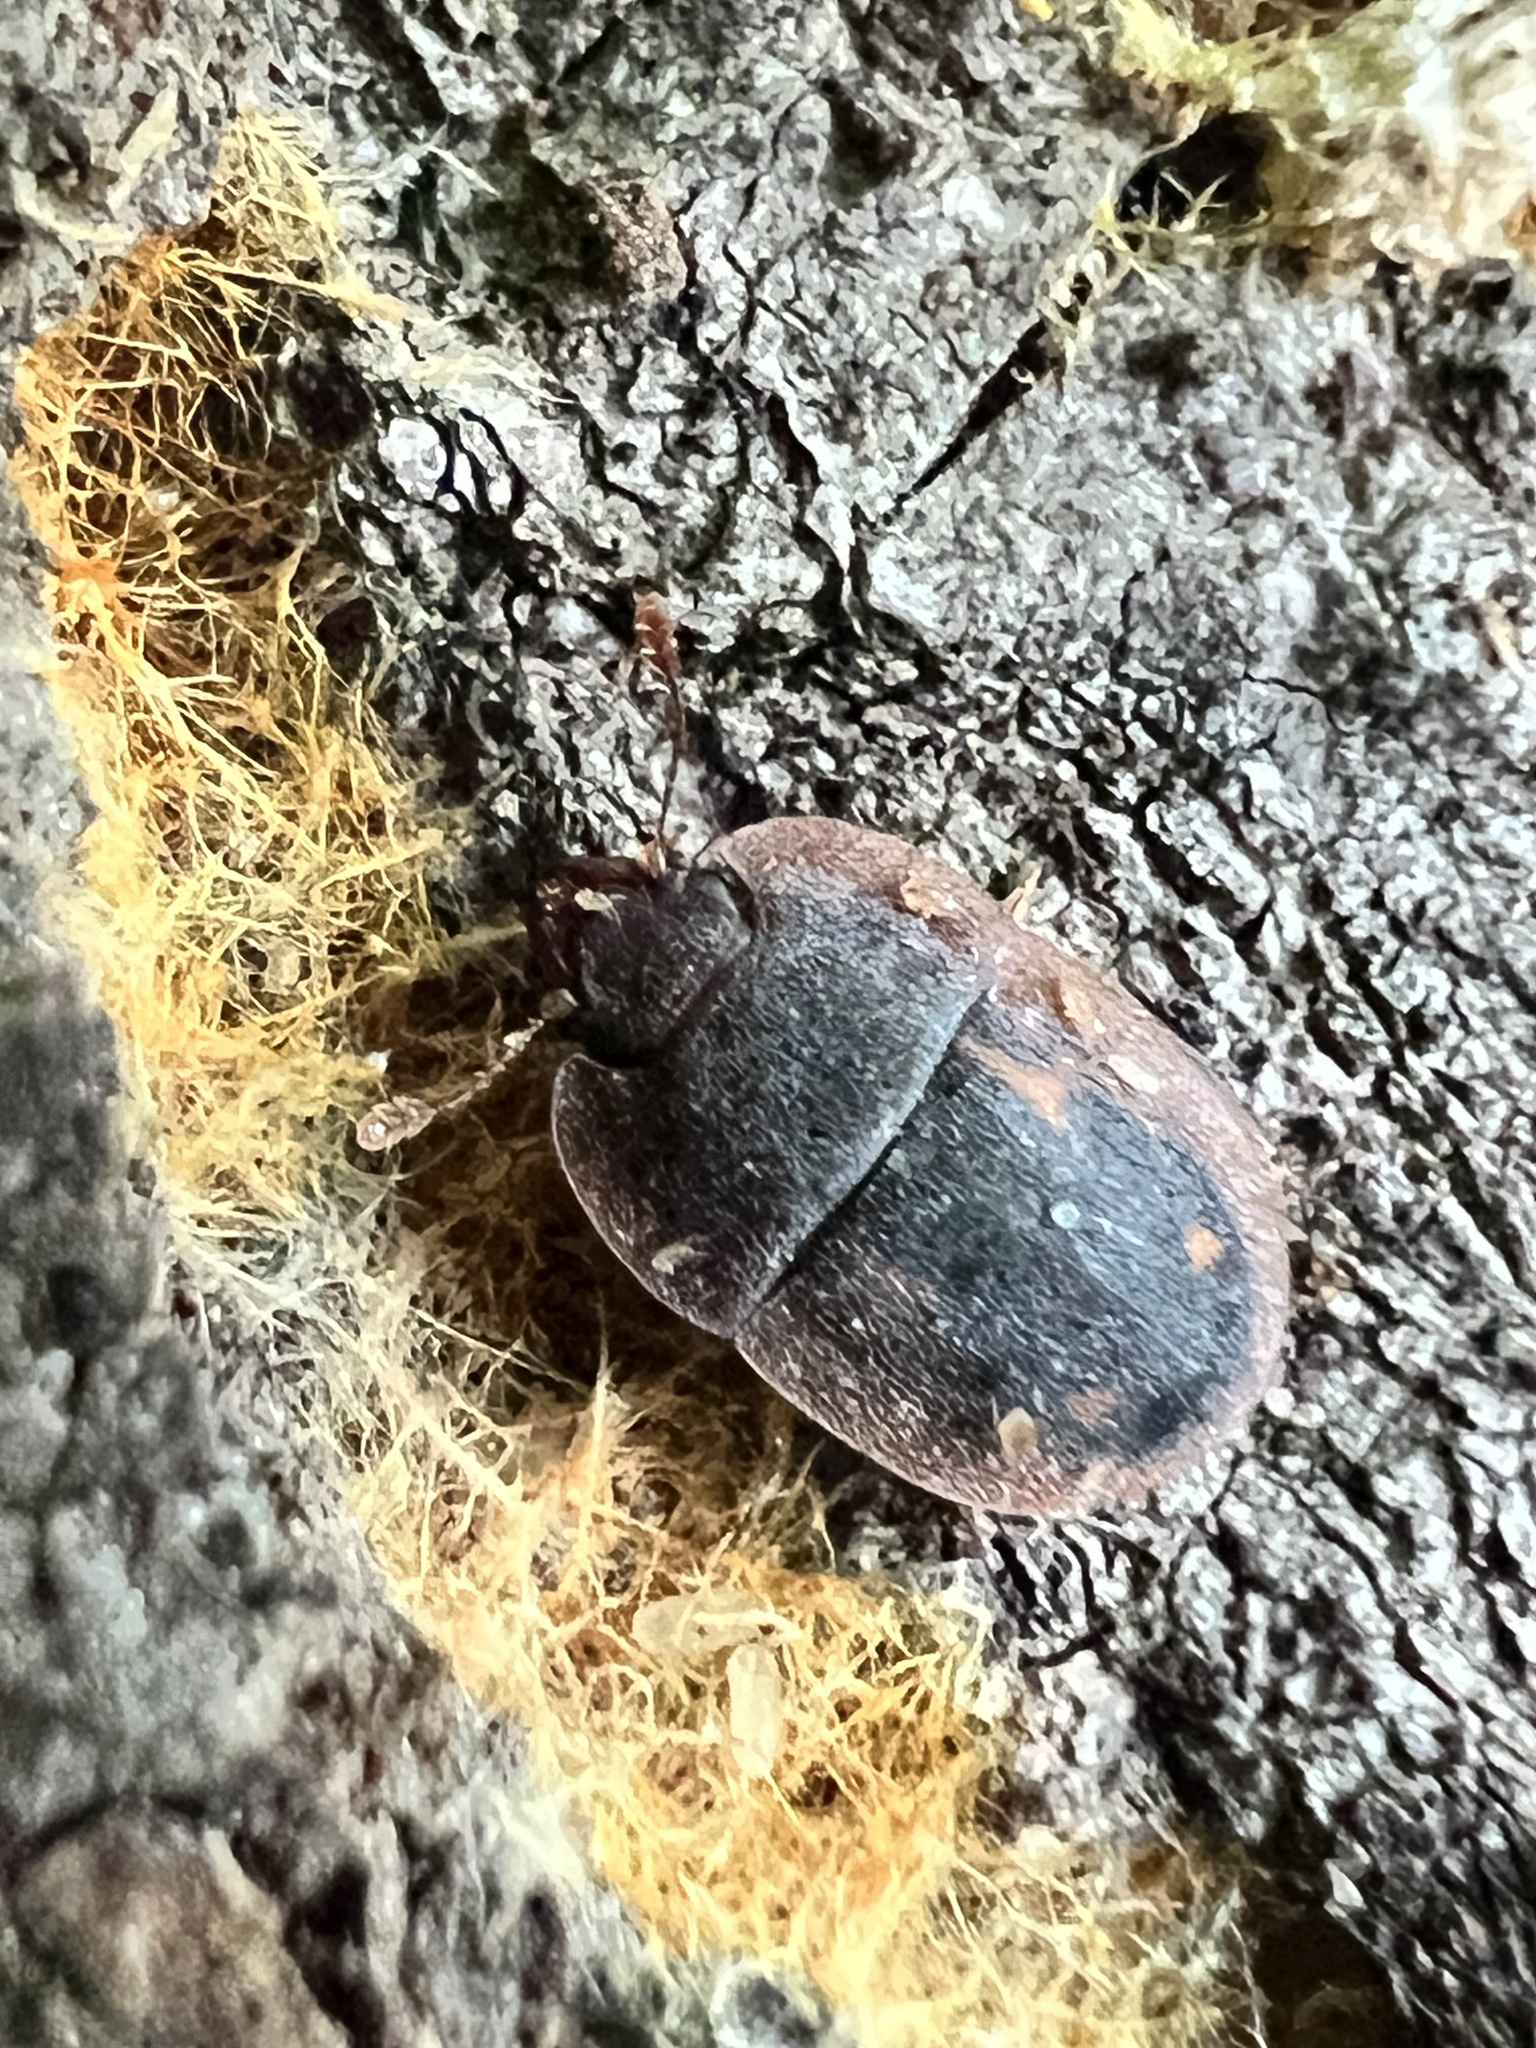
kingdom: Animalia
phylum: Arthropoda
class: Insecta
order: Coleoptera
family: Nitidulidae
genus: Prometopia
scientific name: Prometopia sexmaculata
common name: Six-spotted sap-feeding beetle
